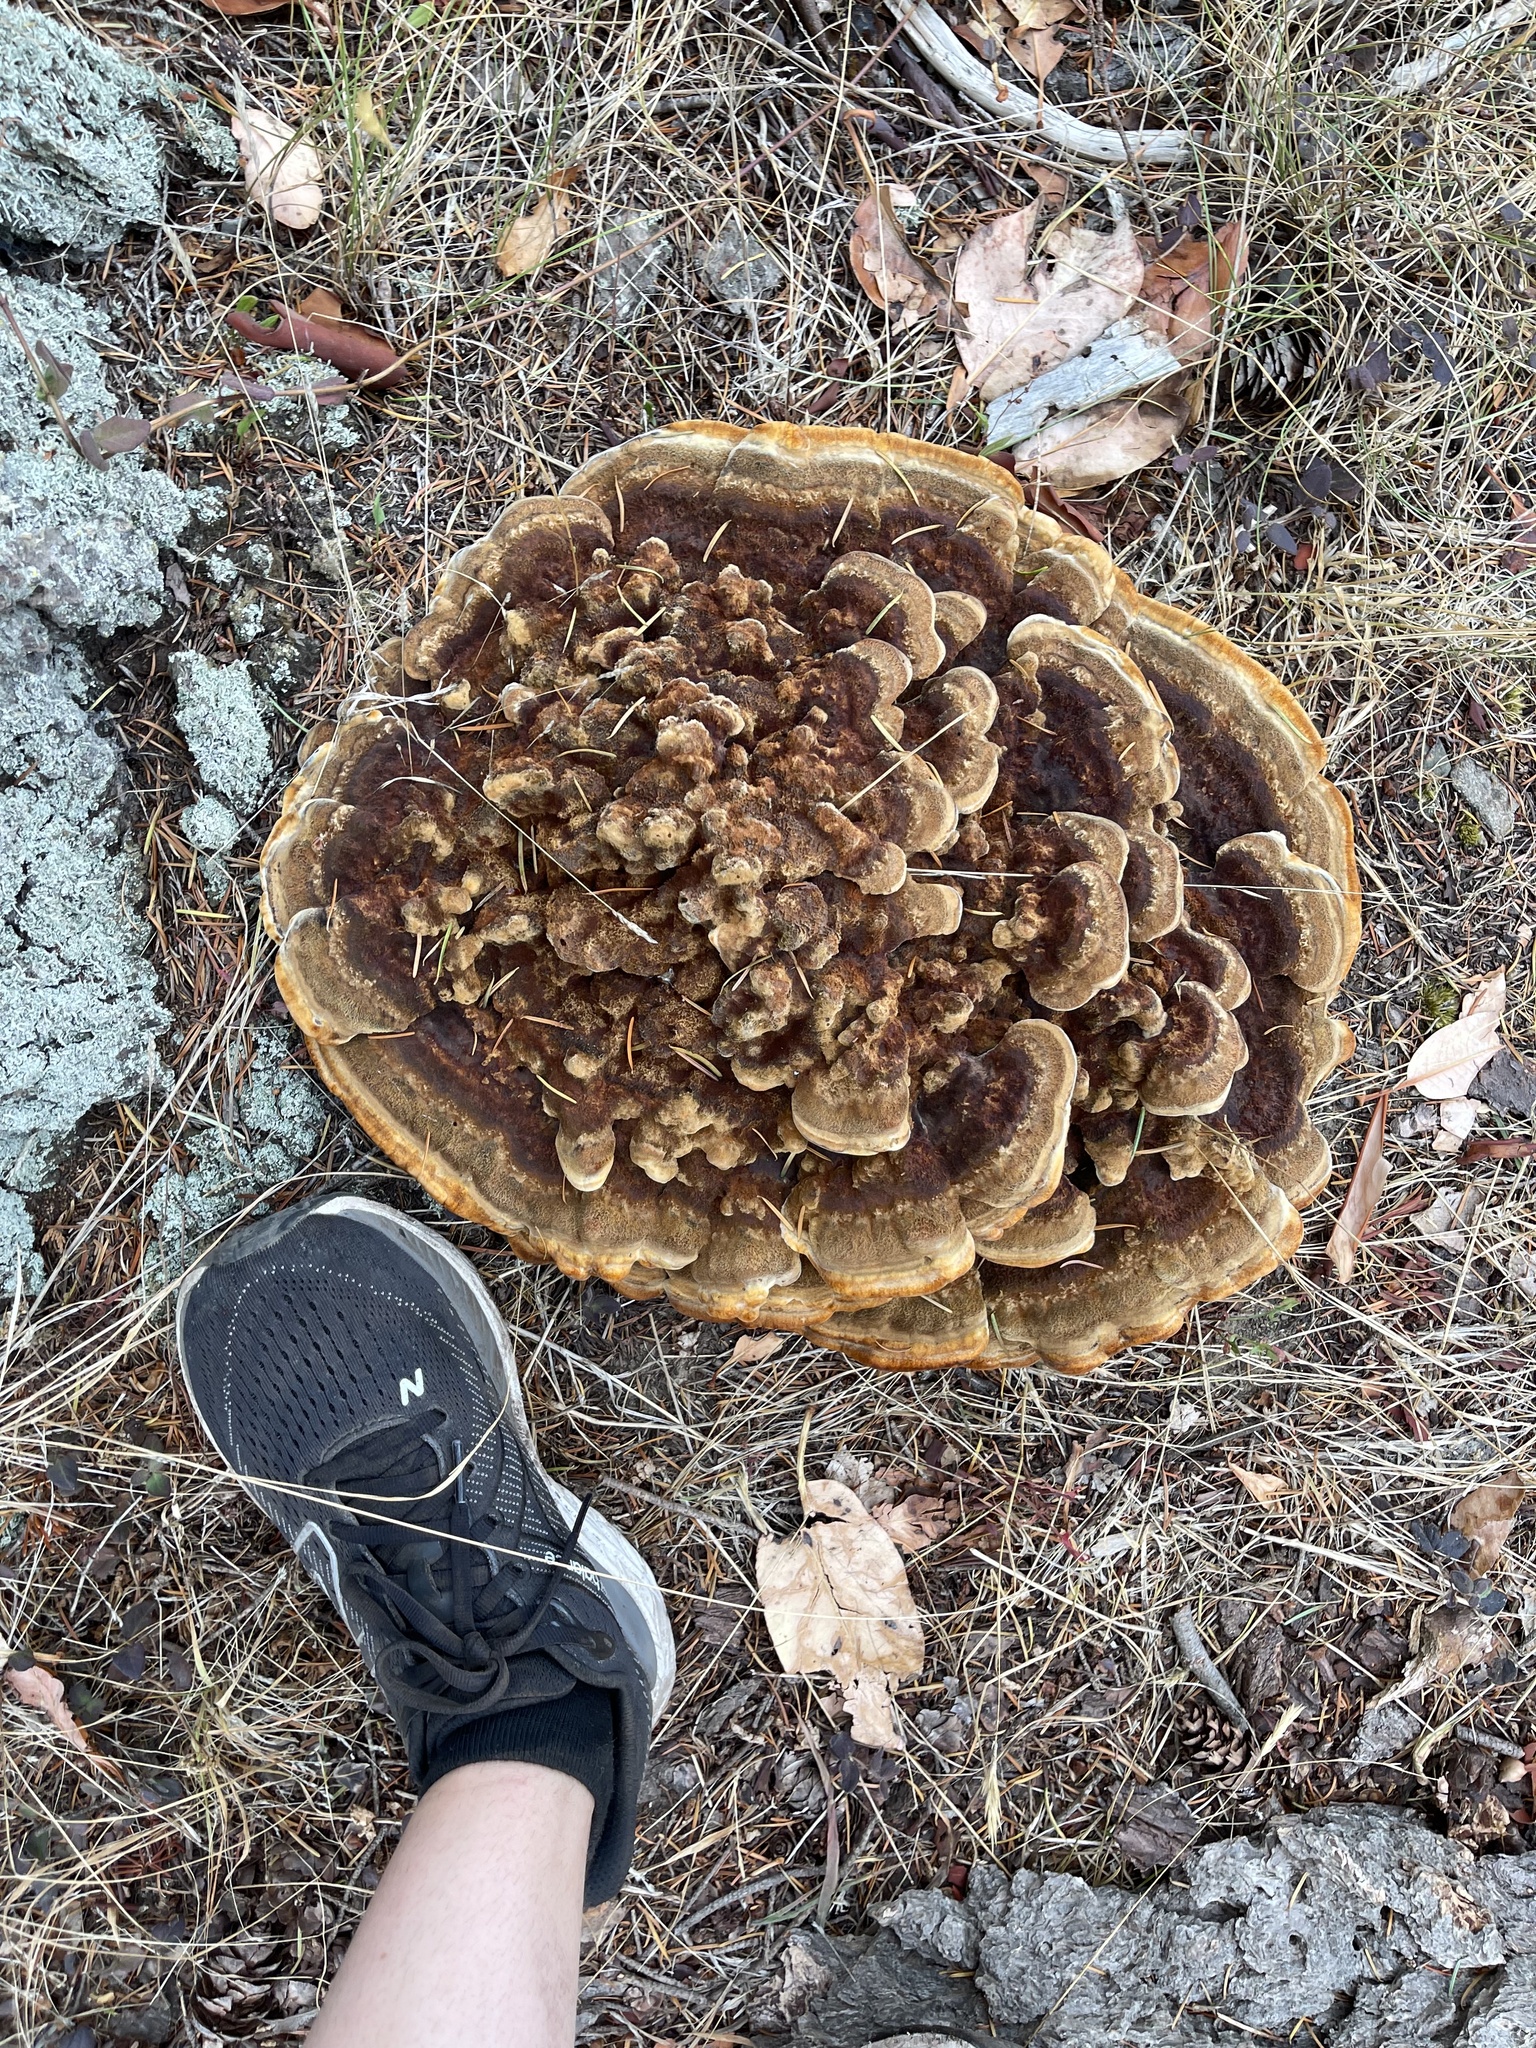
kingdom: Fungi
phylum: Basidiomycota
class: Agaricomycetes
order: Polyporales
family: Laetiporaceae
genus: Phaeolus
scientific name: Phaeolus schweinitzii
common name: Dyer's mazegill
